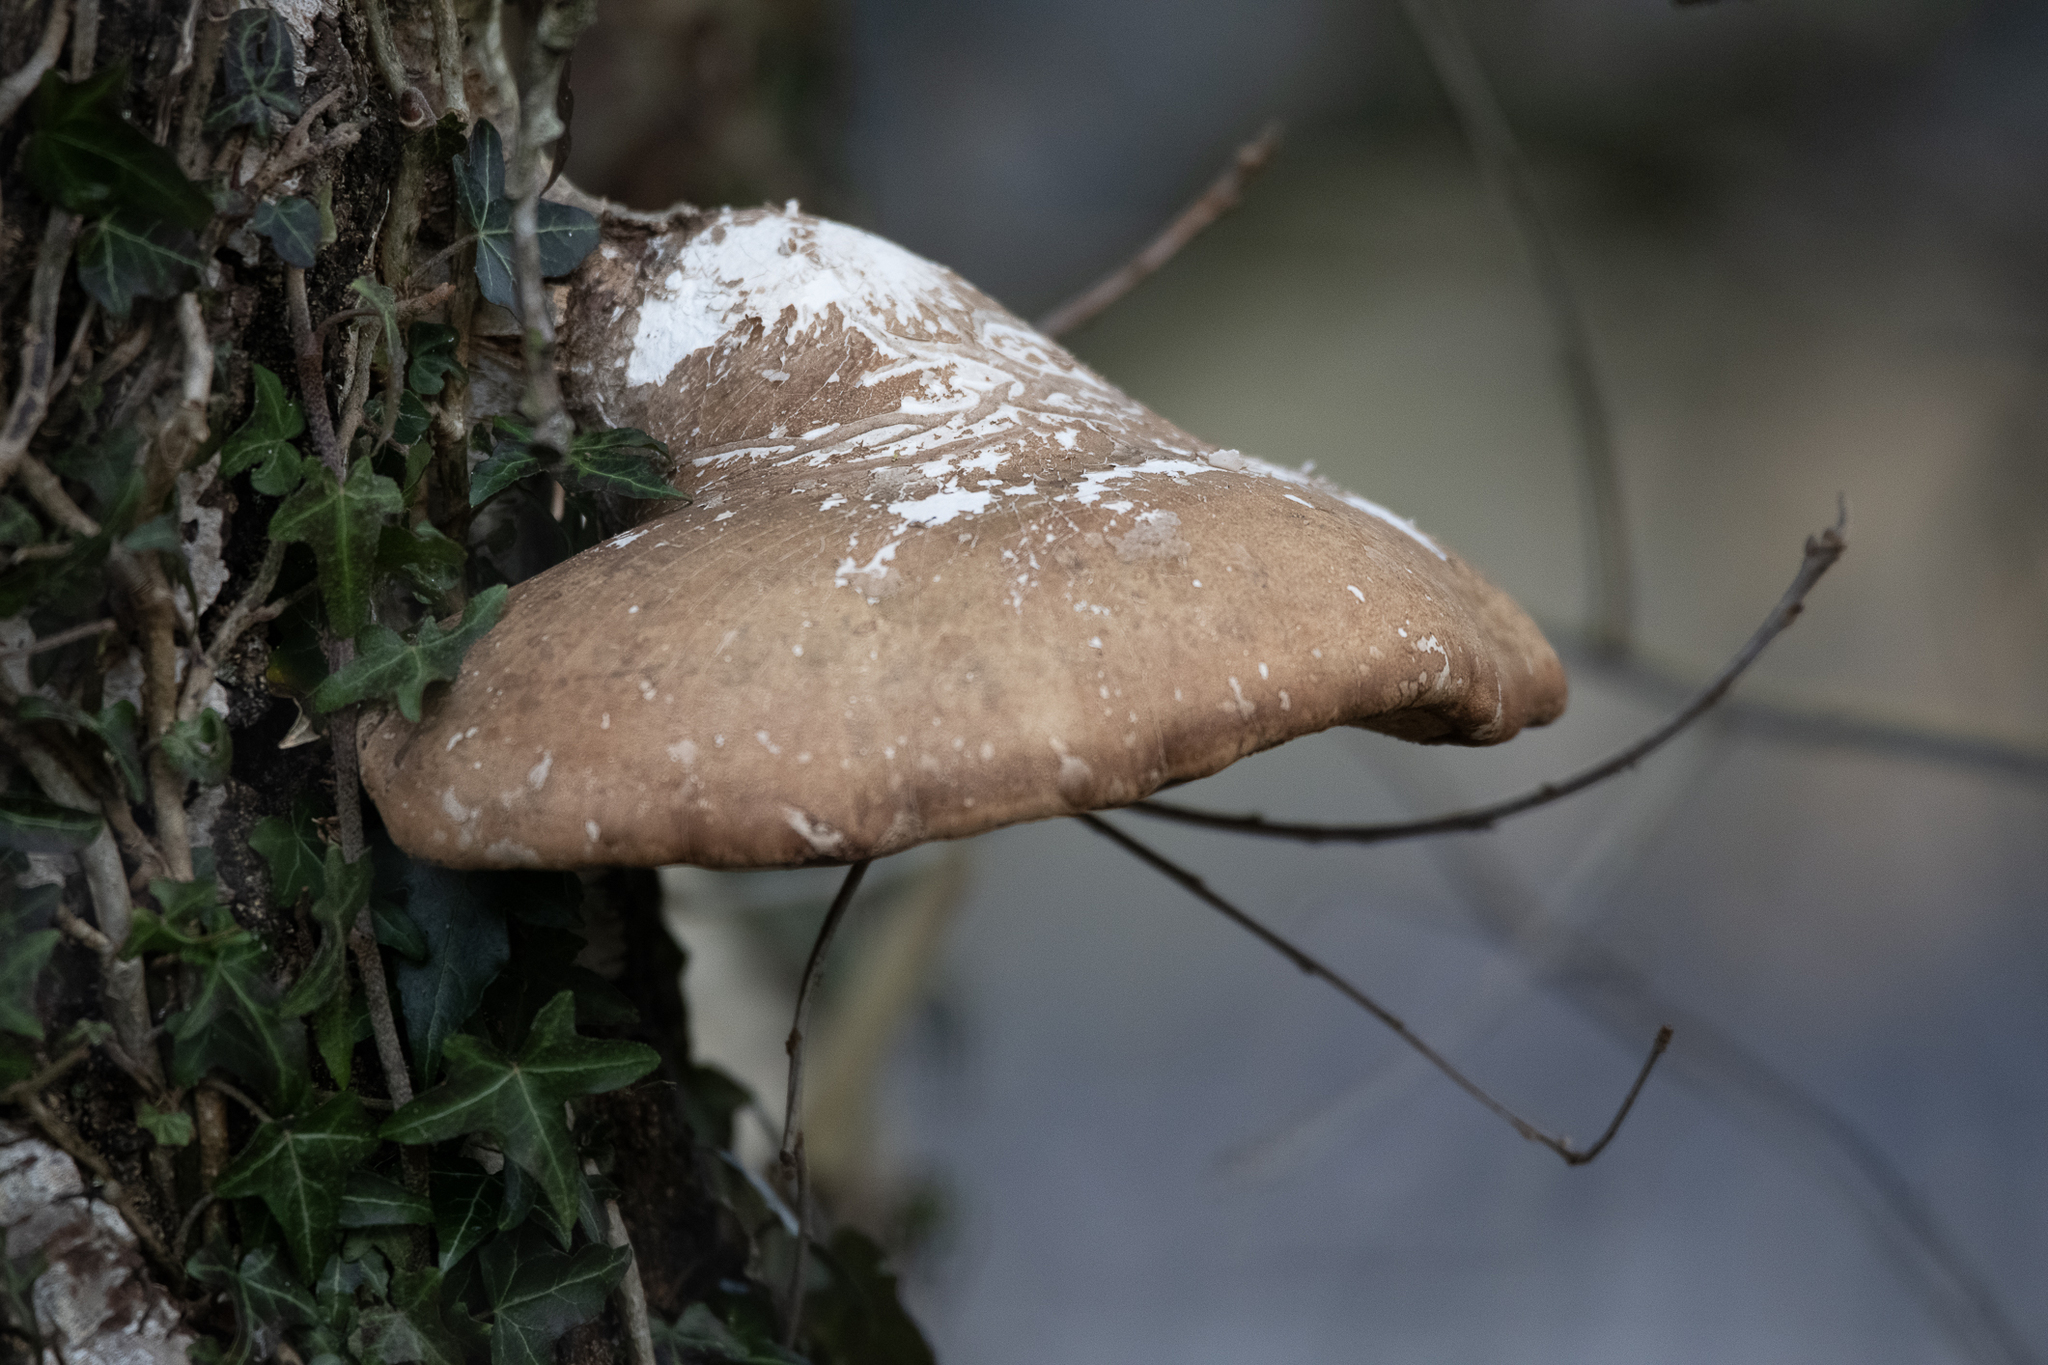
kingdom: Fungi
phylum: Basidiomycota
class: Agaricomycetes
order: Polyporales
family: Fomitopsidaceae
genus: Fomitopsis
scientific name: Fomitopsis betulina
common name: Birch polypore
